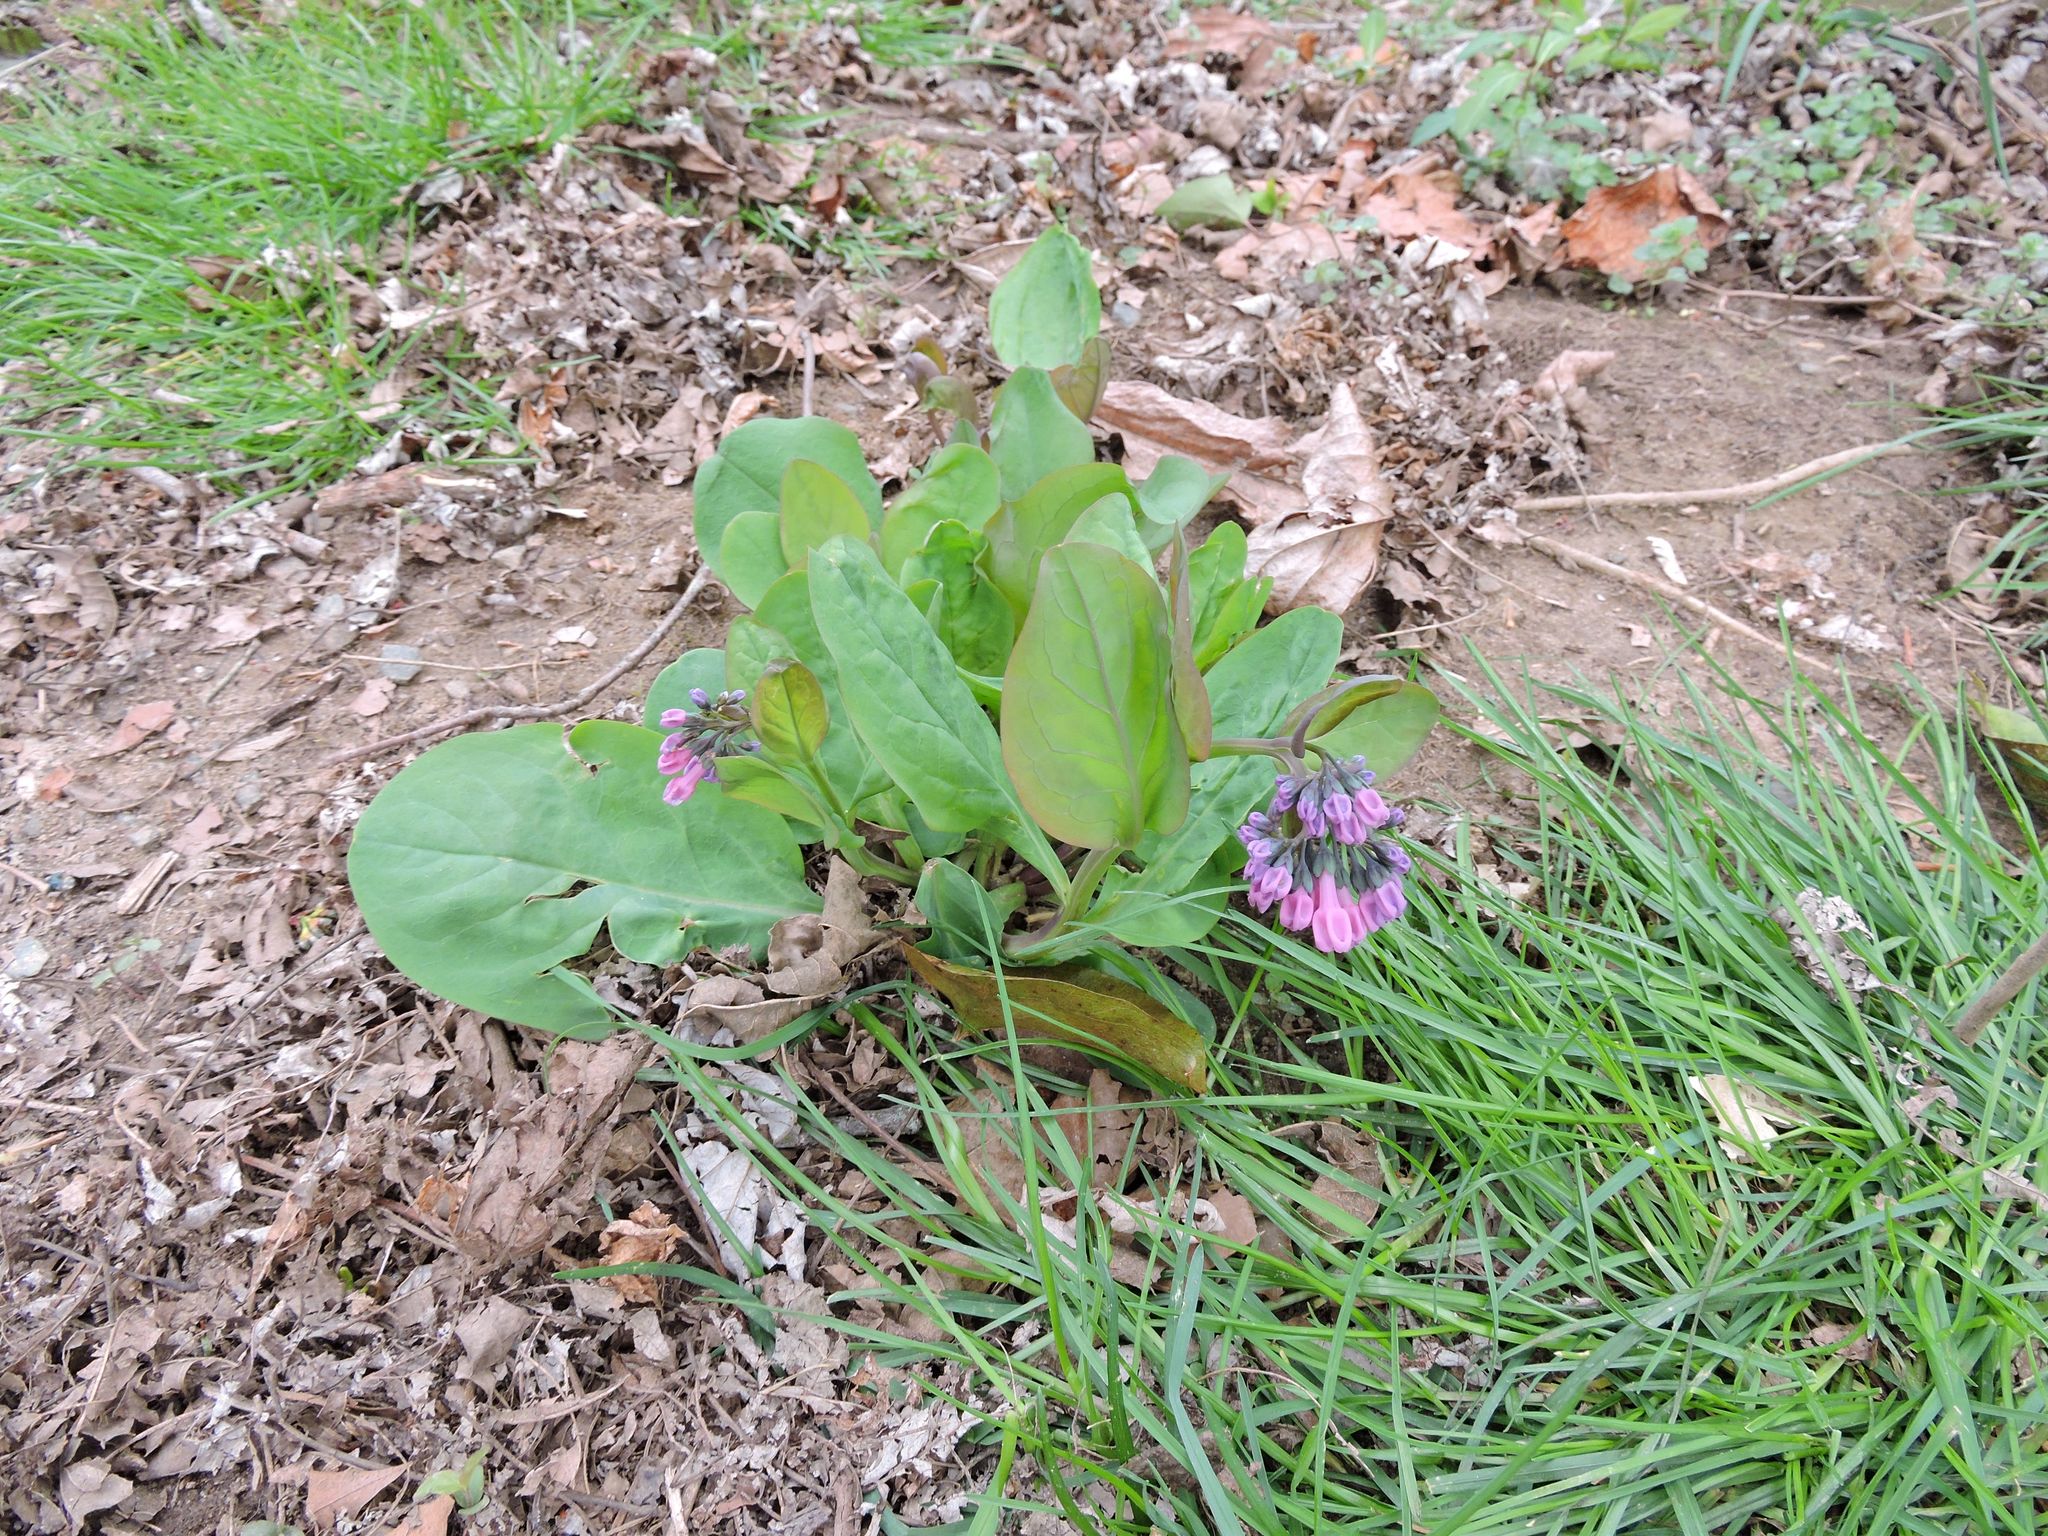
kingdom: Plantae
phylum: Tracheophyta
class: Magnoliopsida
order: Boraginales
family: Boraginaceae
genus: Mertensia
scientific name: Mertensia virginica
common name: Virginia bluebells
